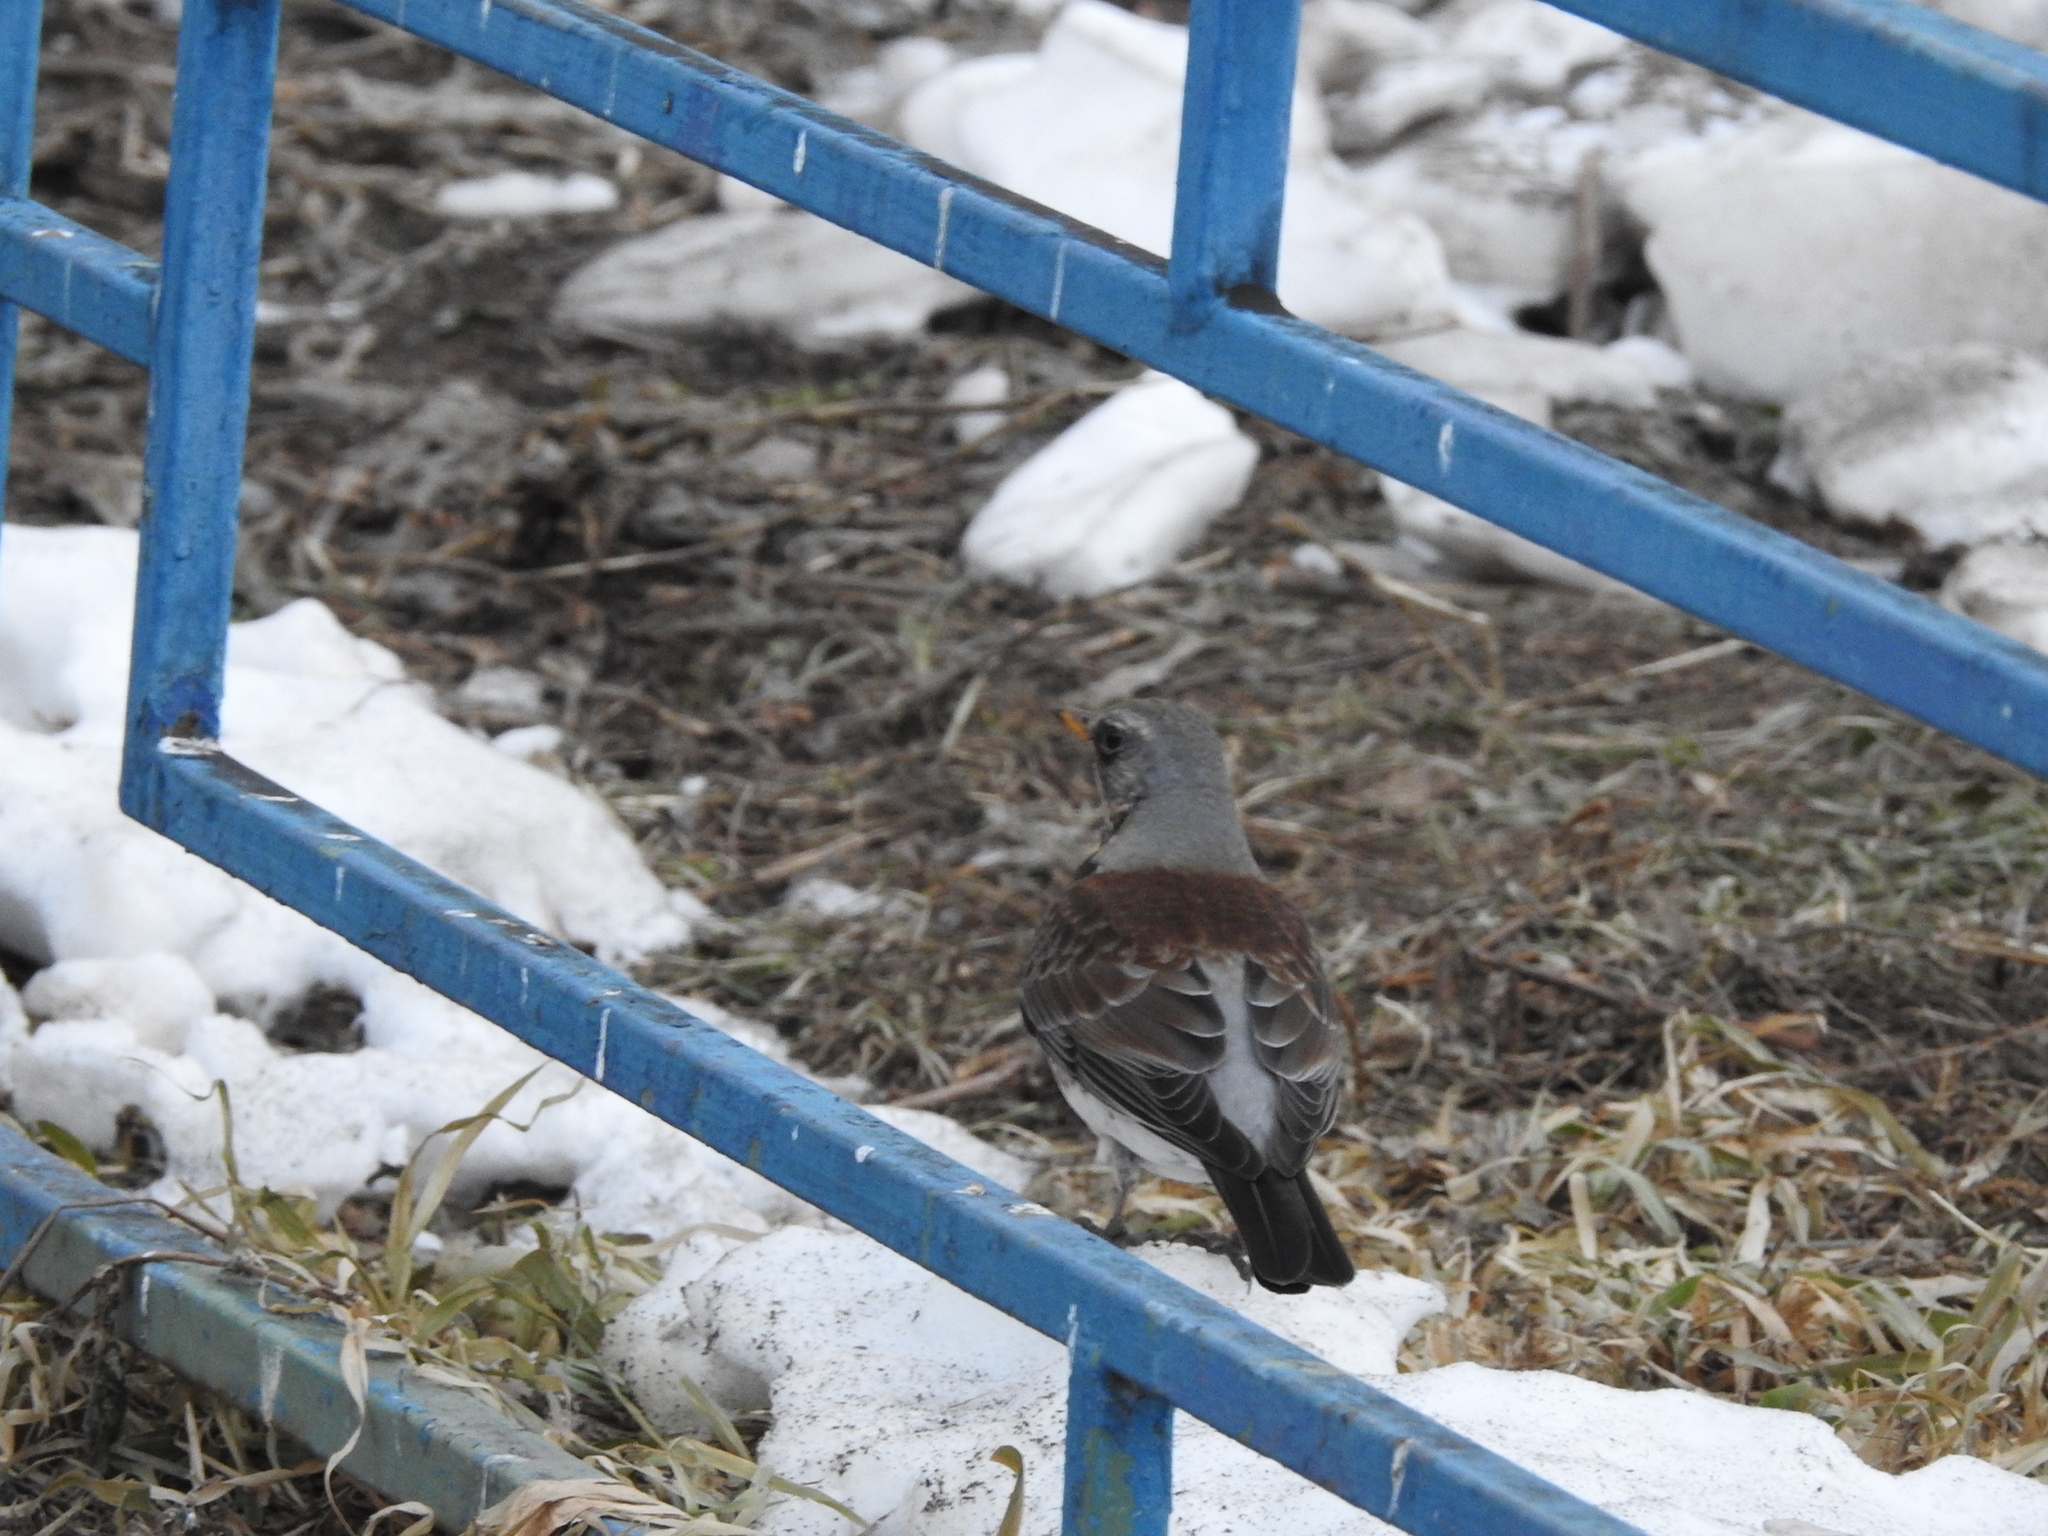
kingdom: Animalia
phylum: Chordata
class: Aves
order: Passeriformes
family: Turdidae
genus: Turdus
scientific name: Turdus pilaris
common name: Fieldfare
